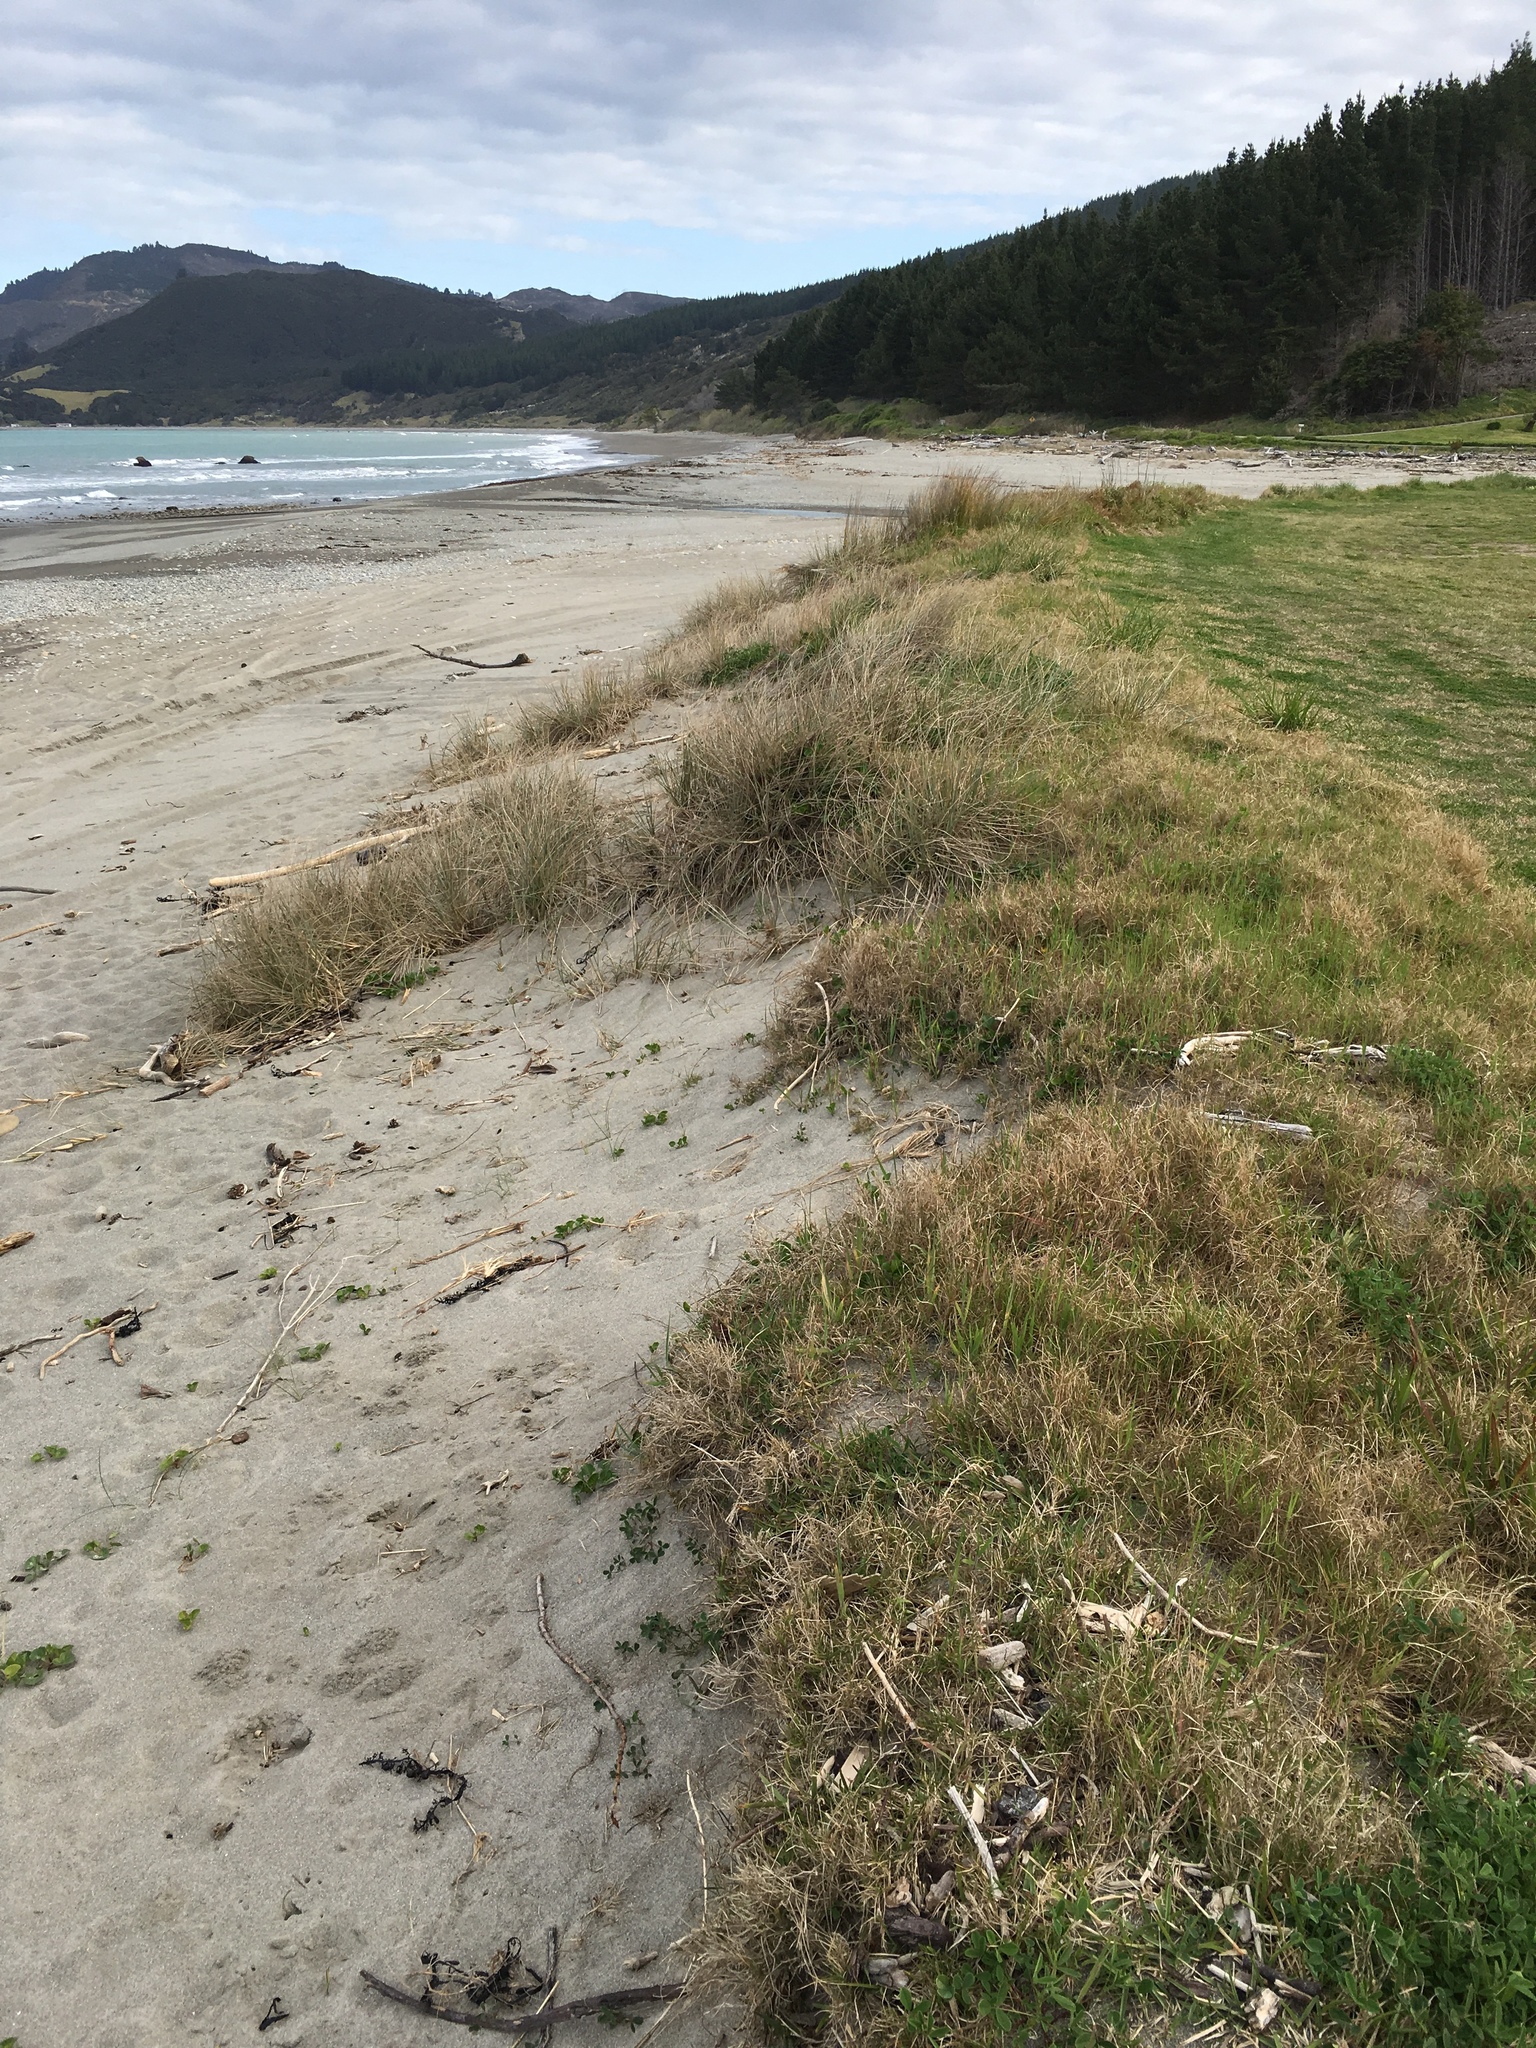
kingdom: Plantae
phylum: Tracheophyta
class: Liliopsida
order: Poales
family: Poaceae
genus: Spinifex
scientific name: Spinifex sericeus
